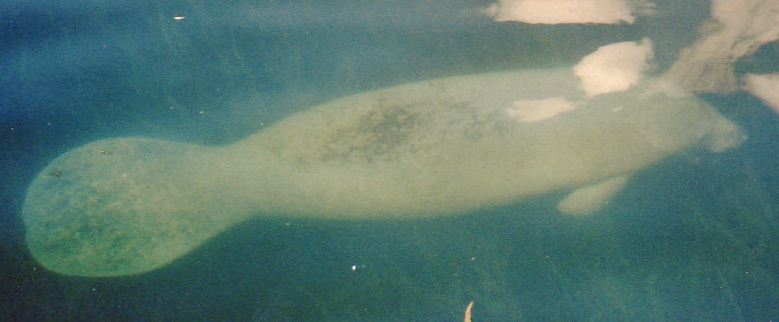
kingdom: Animalia
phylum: Chordata
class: Mammalia
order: Sirenia
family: Trichechidae
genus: Trichechus
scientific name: Trichechus manatus
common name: West indian manatee
